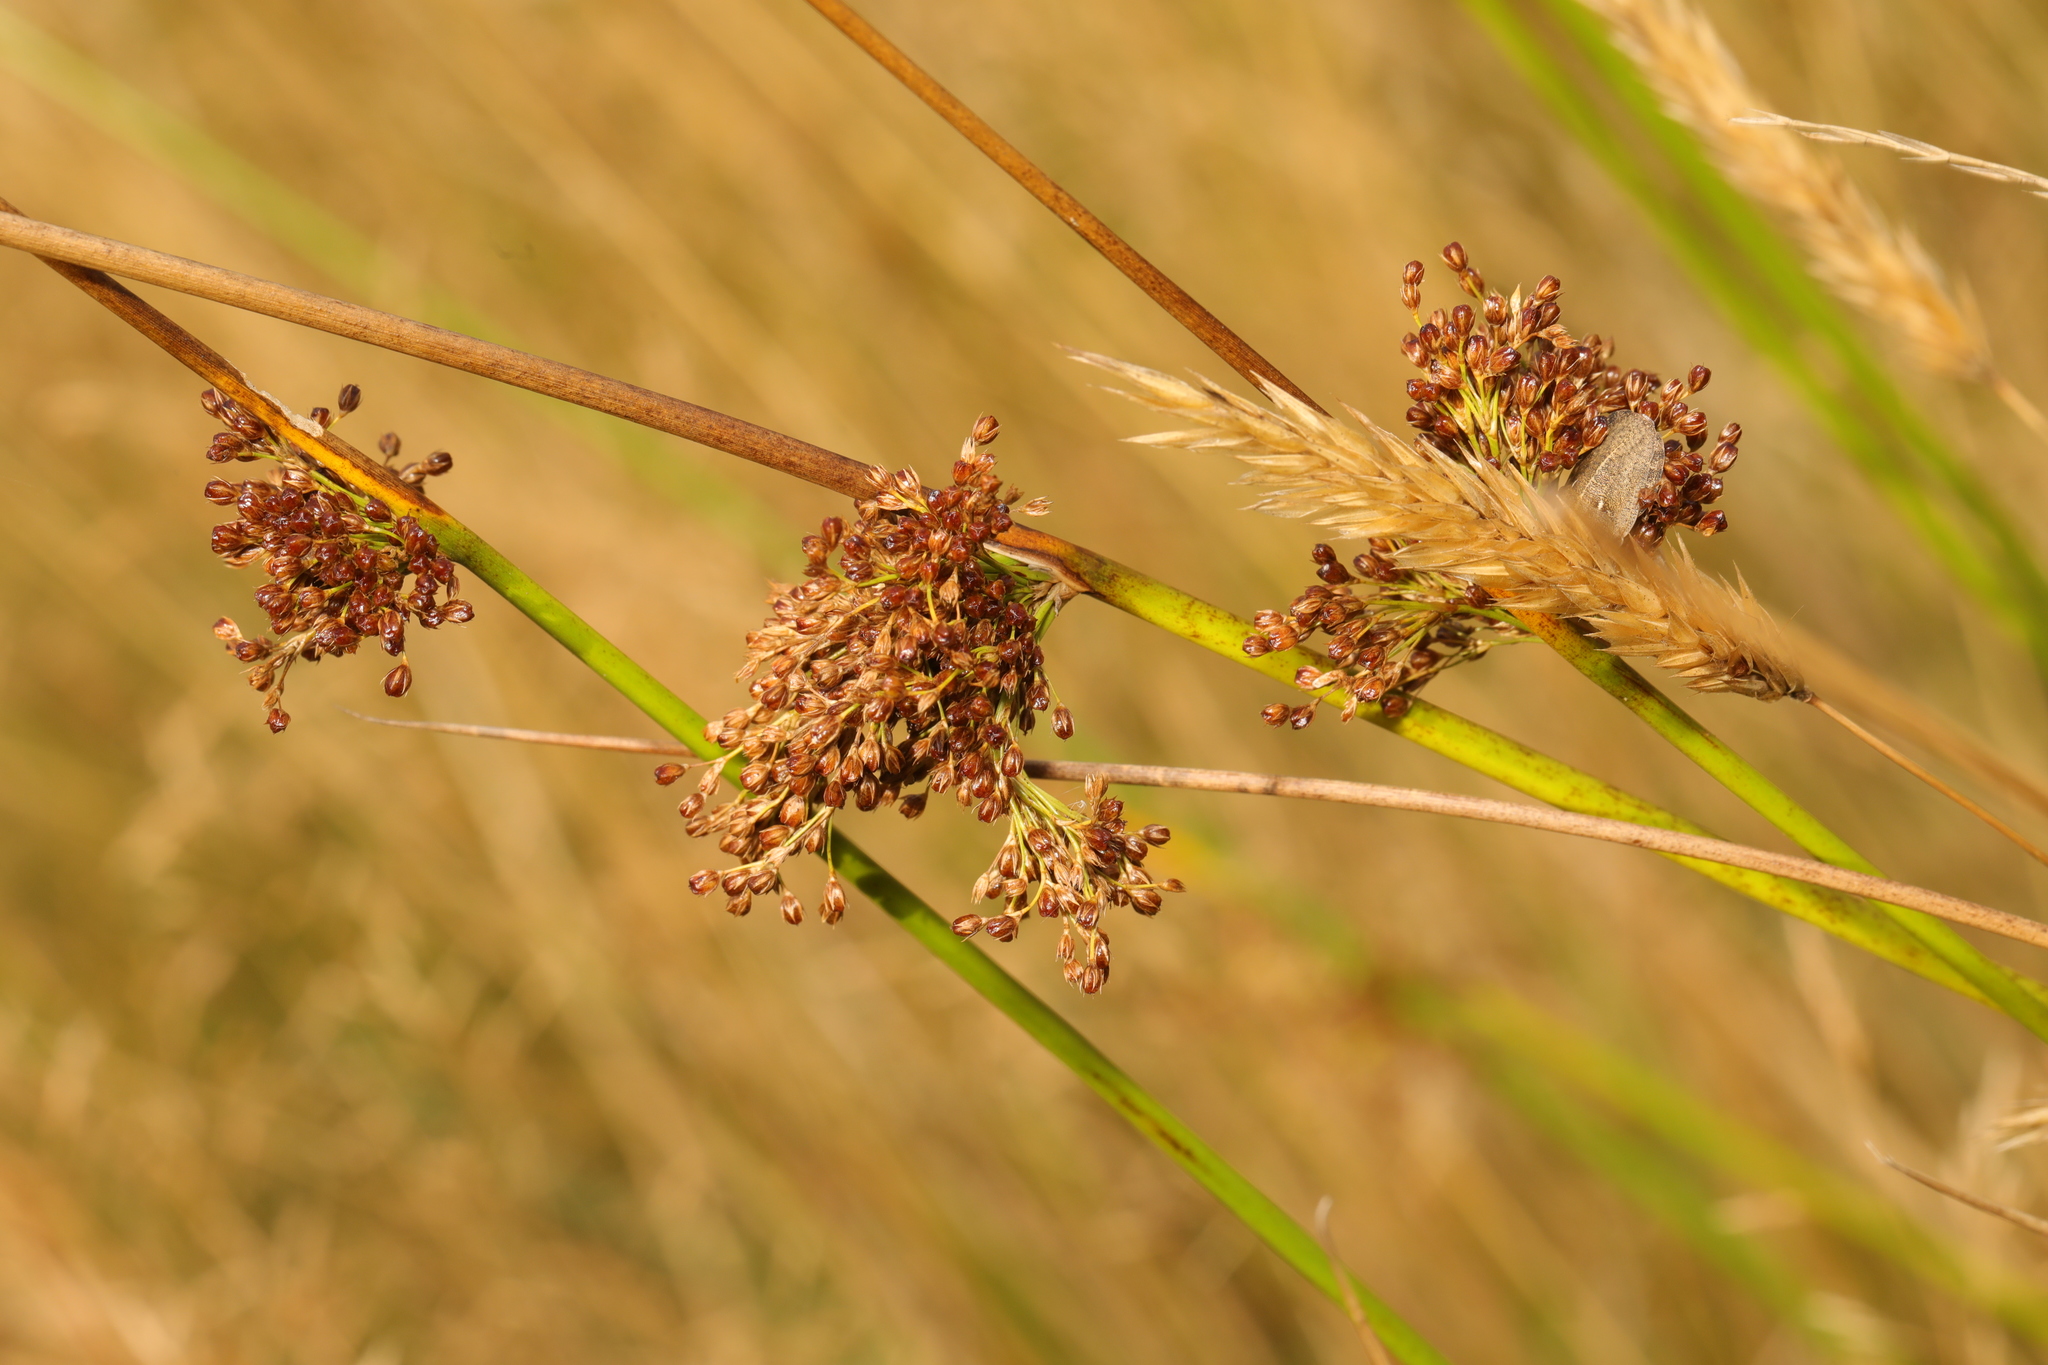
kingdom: Plantae
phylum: Tracheophyta
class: Liliopsida
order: Poales
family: Juncaceae
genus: Juncus
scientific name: Juncus effusus
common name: Soft rush
